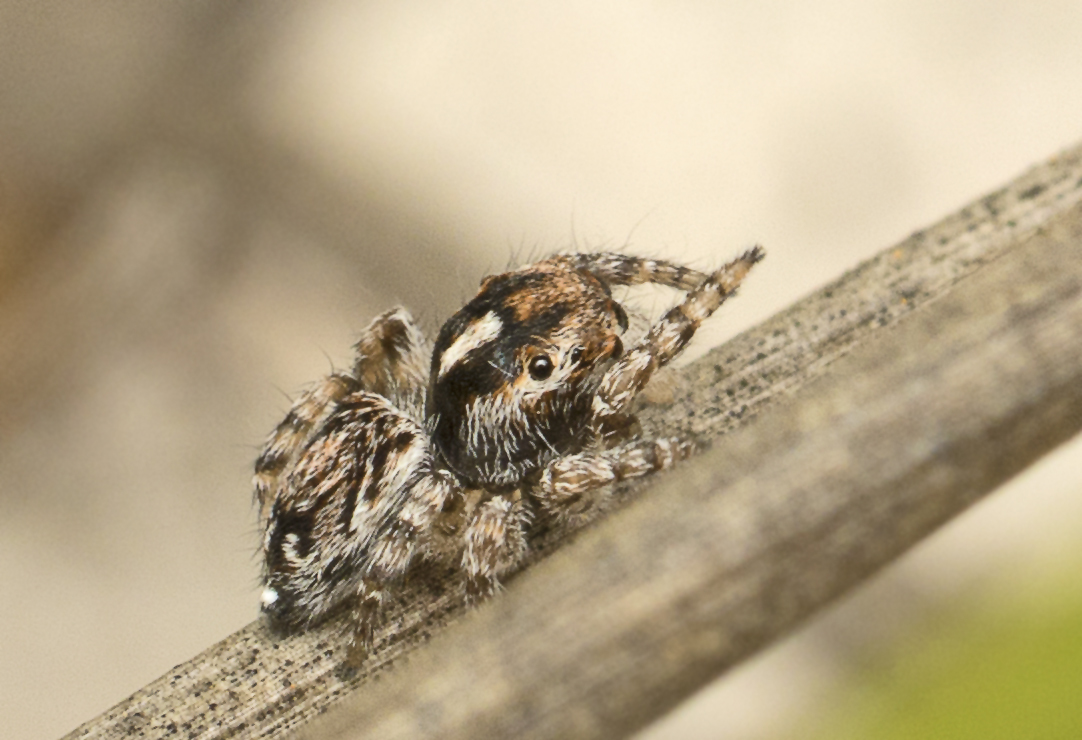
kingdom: Animalia
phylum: Arthropoda
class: Arachnida
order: Araneae
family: Salticidae
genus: Maratus
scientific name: Maratus electricus
